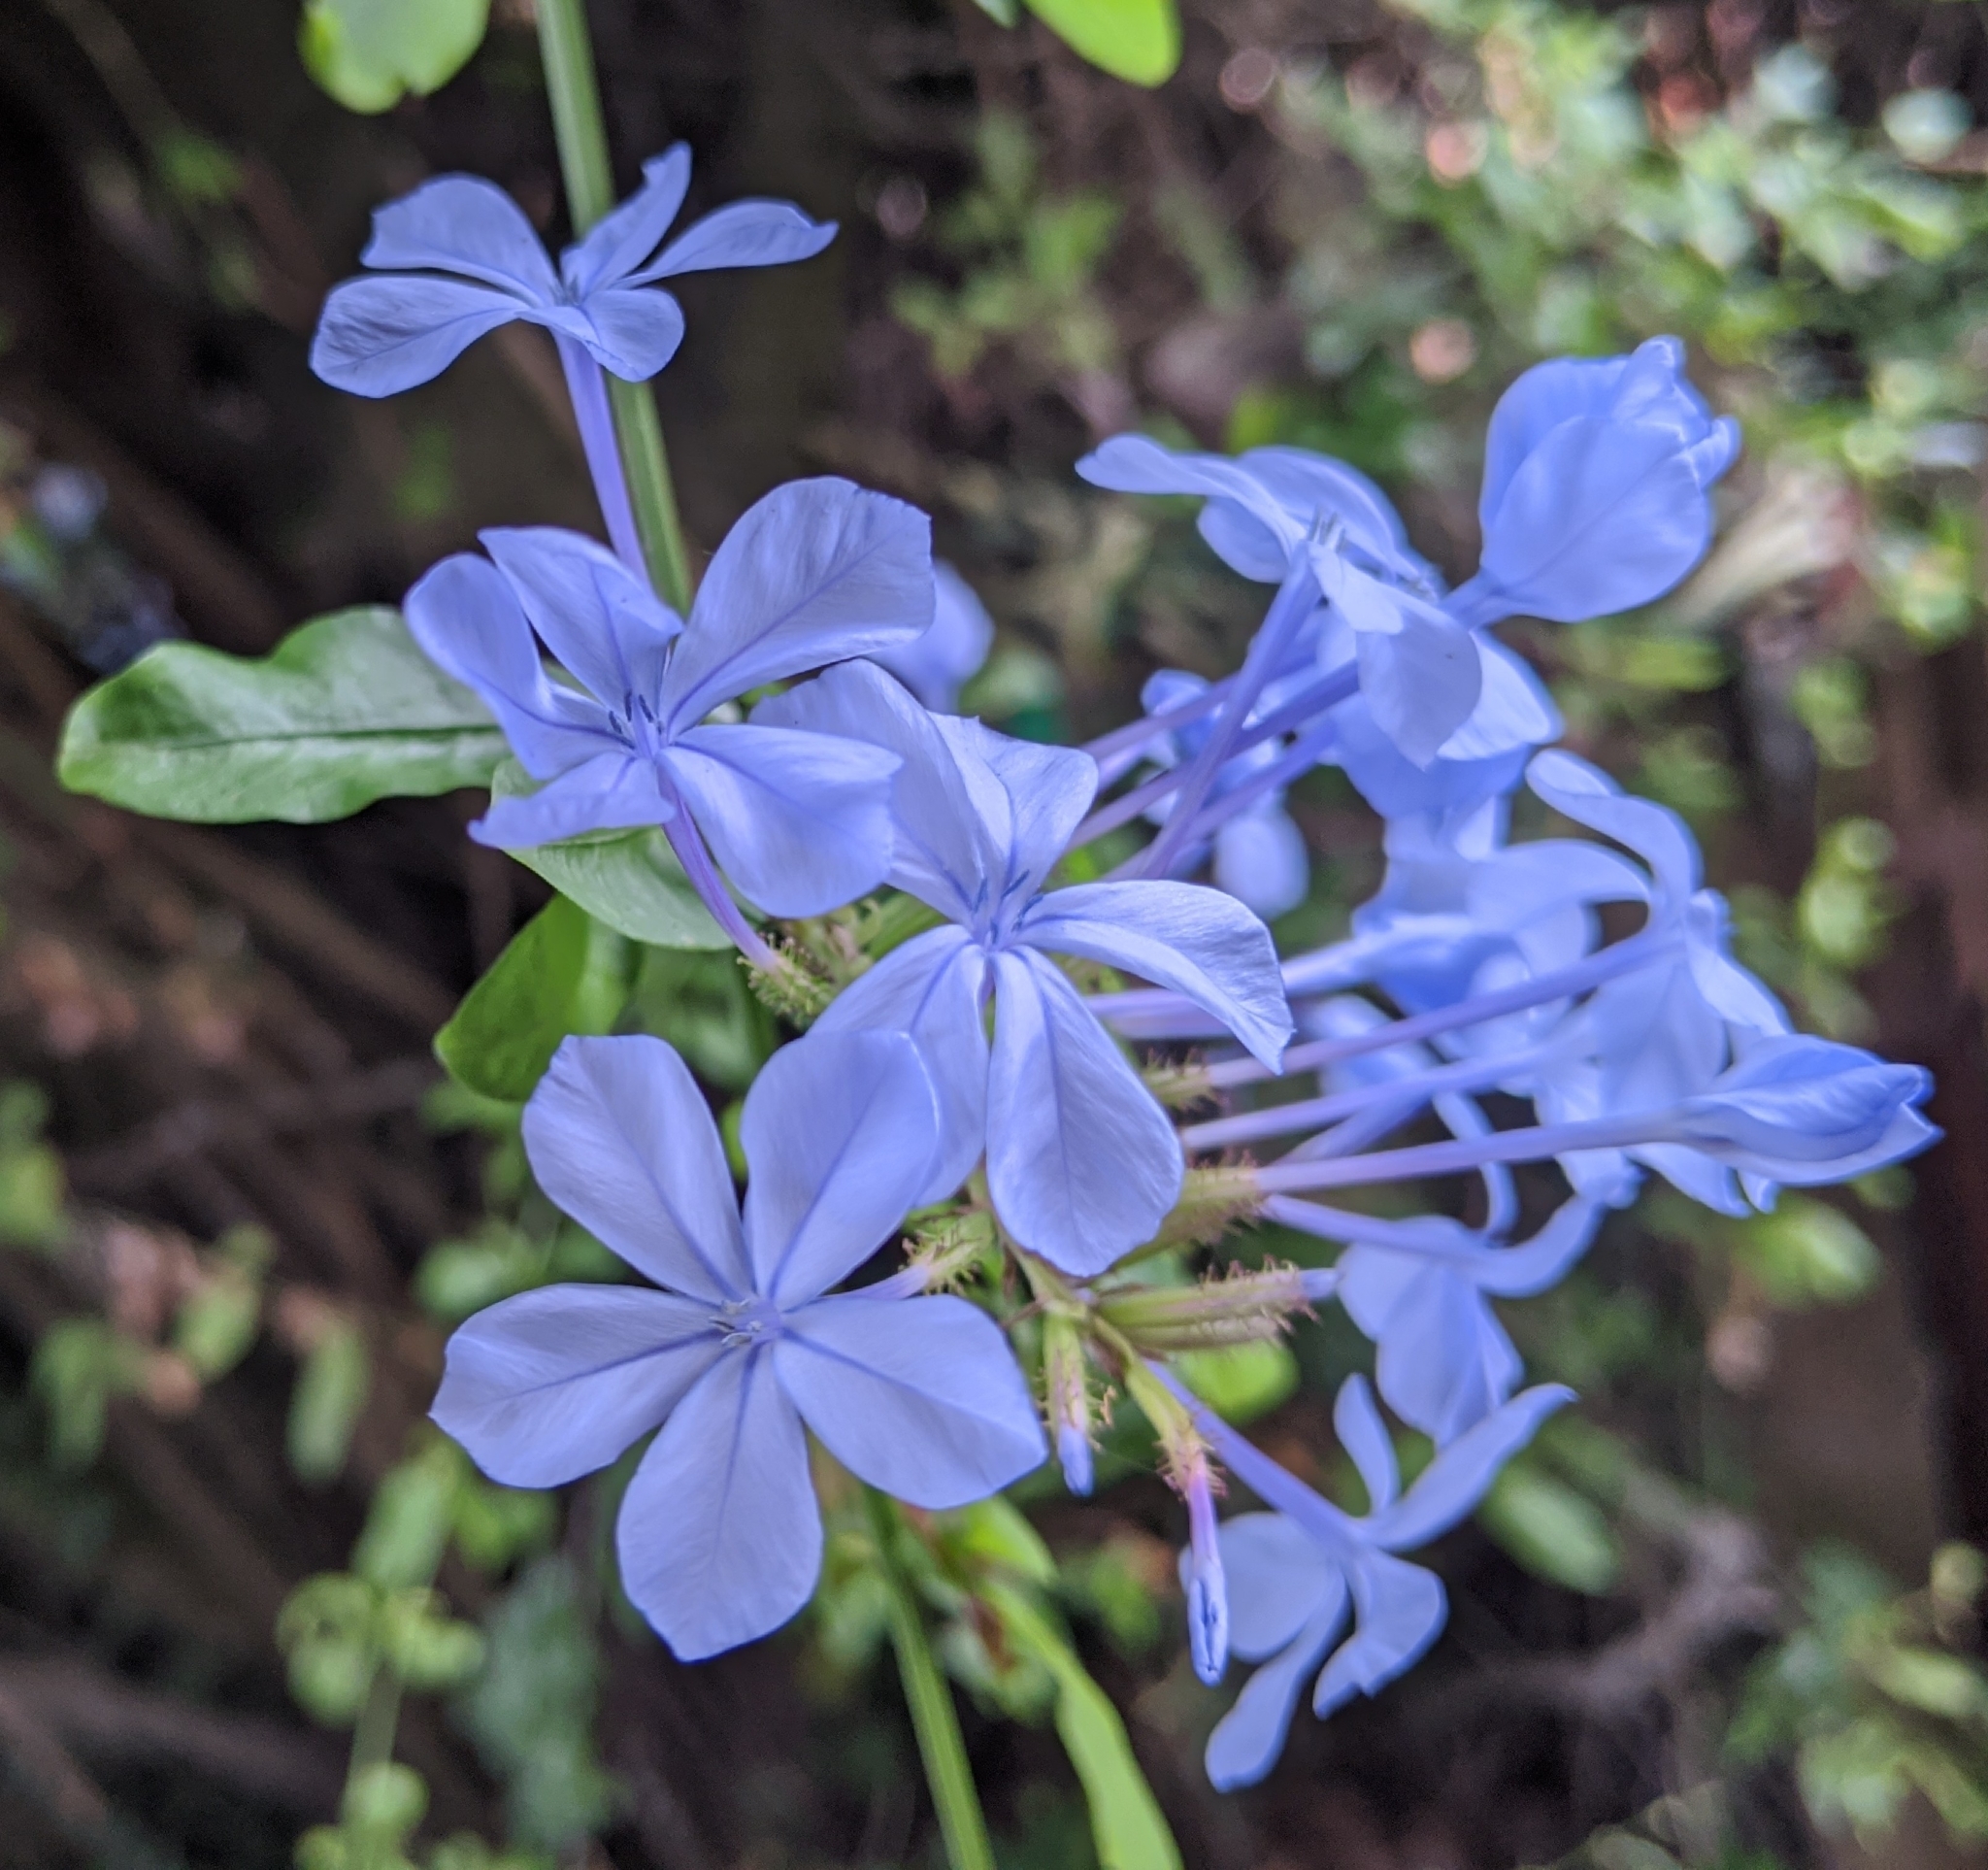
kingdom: Plantae
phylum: Tracheophyta
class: Magnoliopsida
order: Caryophyllales
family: Plumbaginaceae
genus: Plumbago
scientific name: Plumbago auriculata
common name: Cape leadwort
